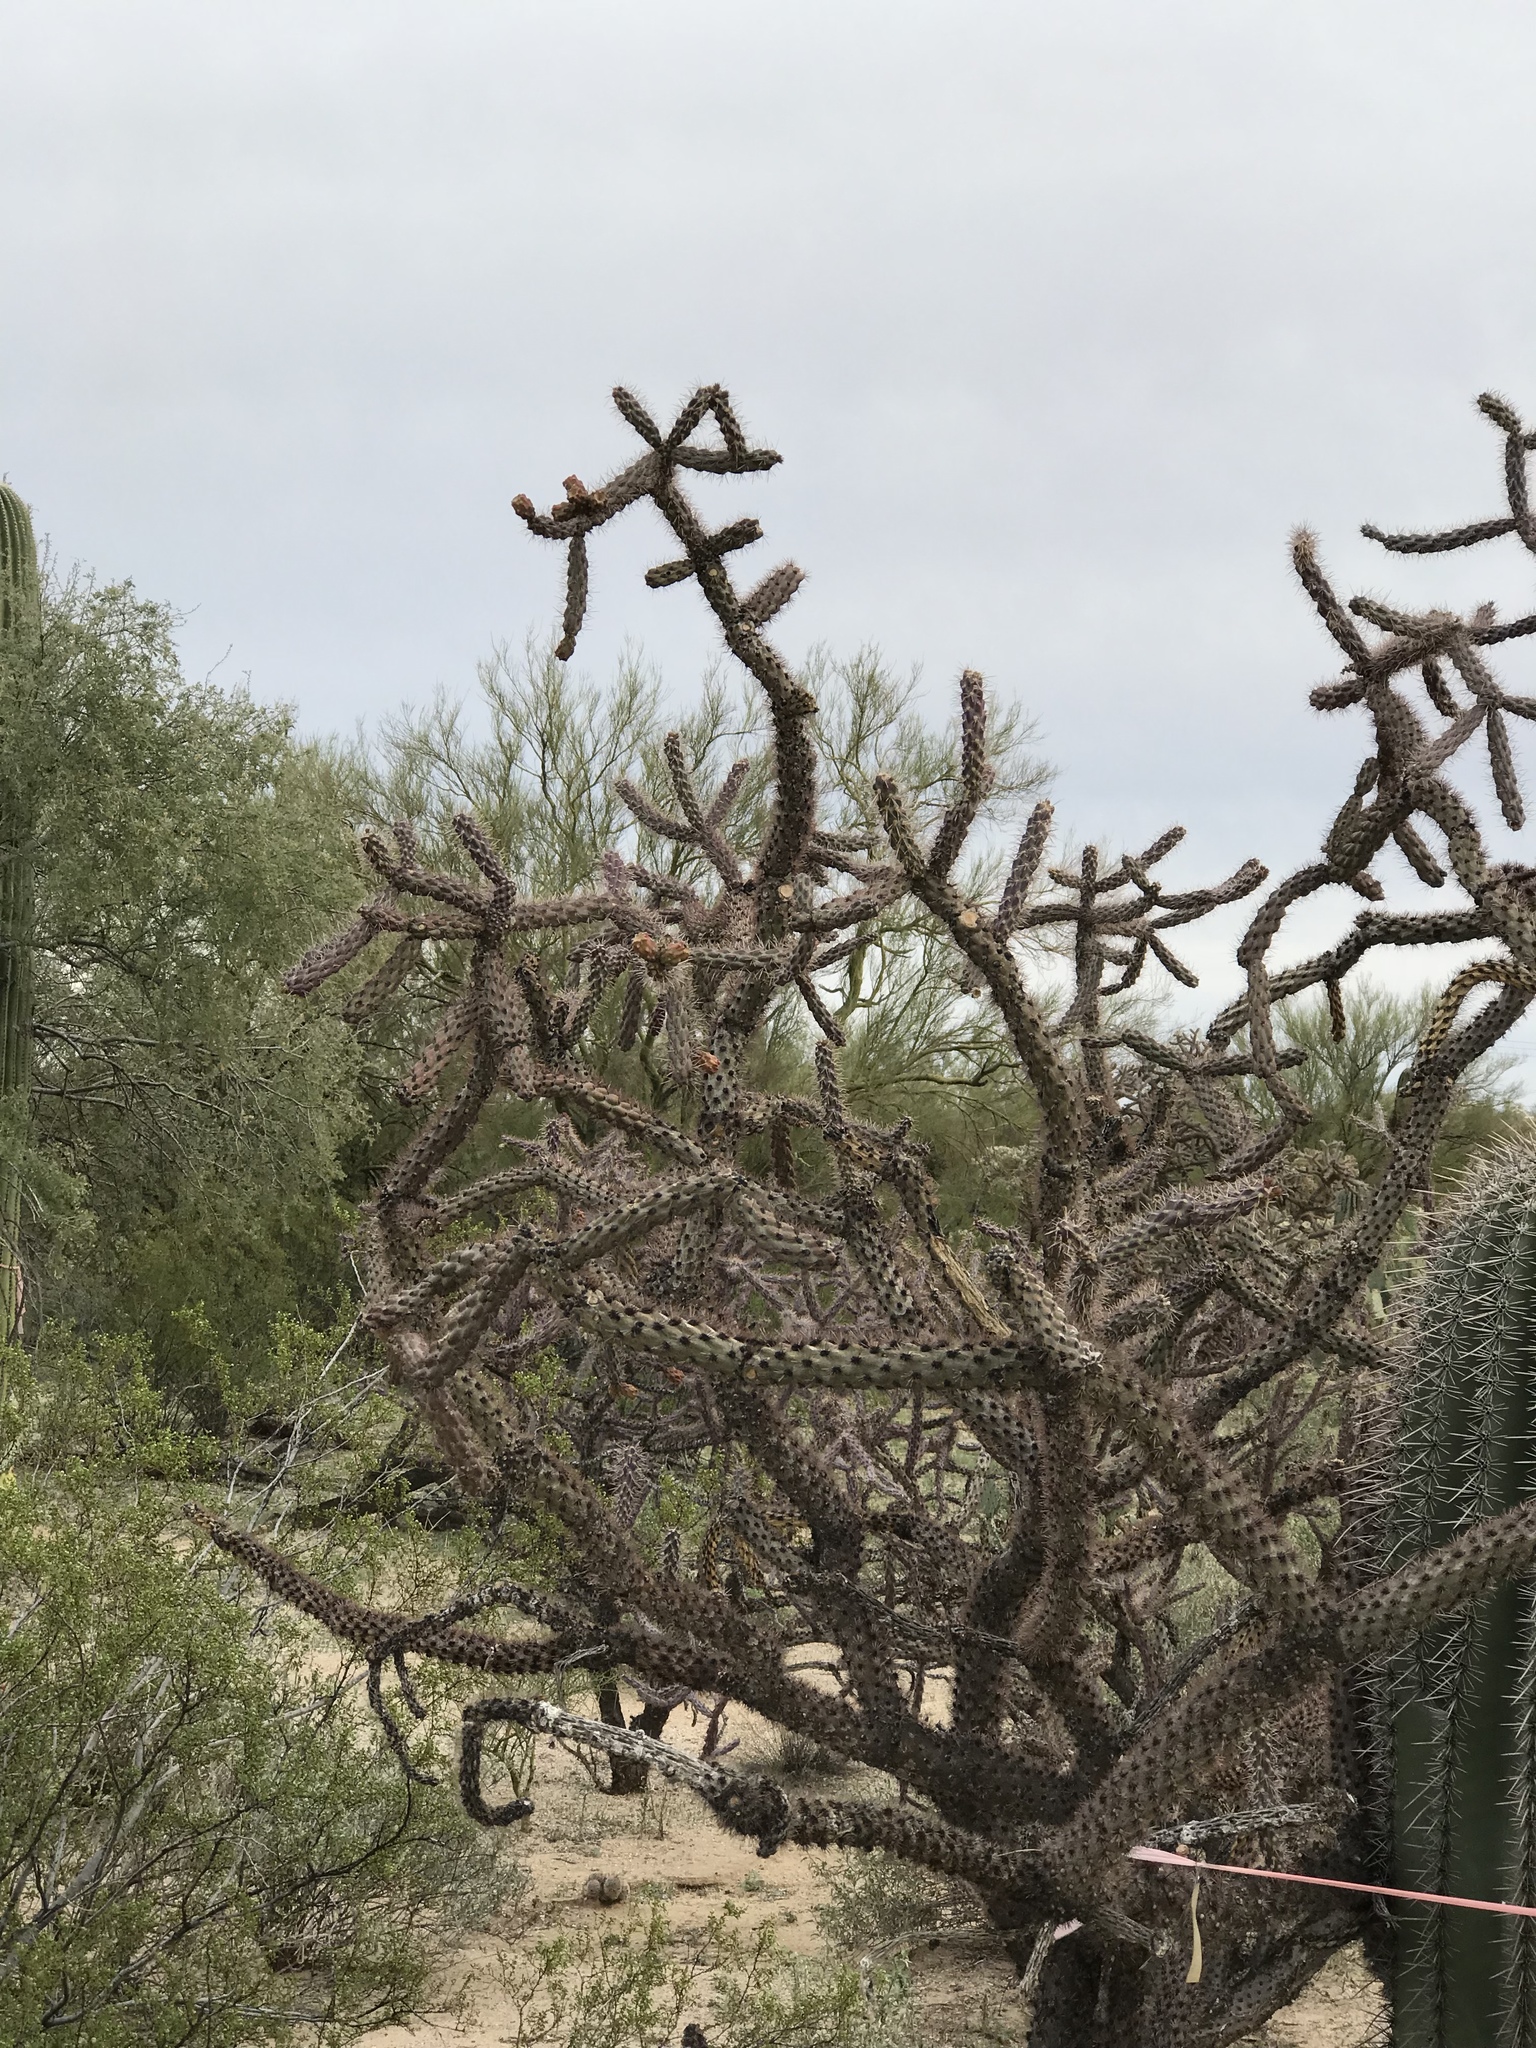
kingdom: Plantae
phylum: Tracheophyta
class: Magnoliopsida
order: Caryophyllales
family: Cactaceae
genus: Cylindropuntia
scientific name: Cylindropuntia imbricata
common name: Candelabrum cactus
